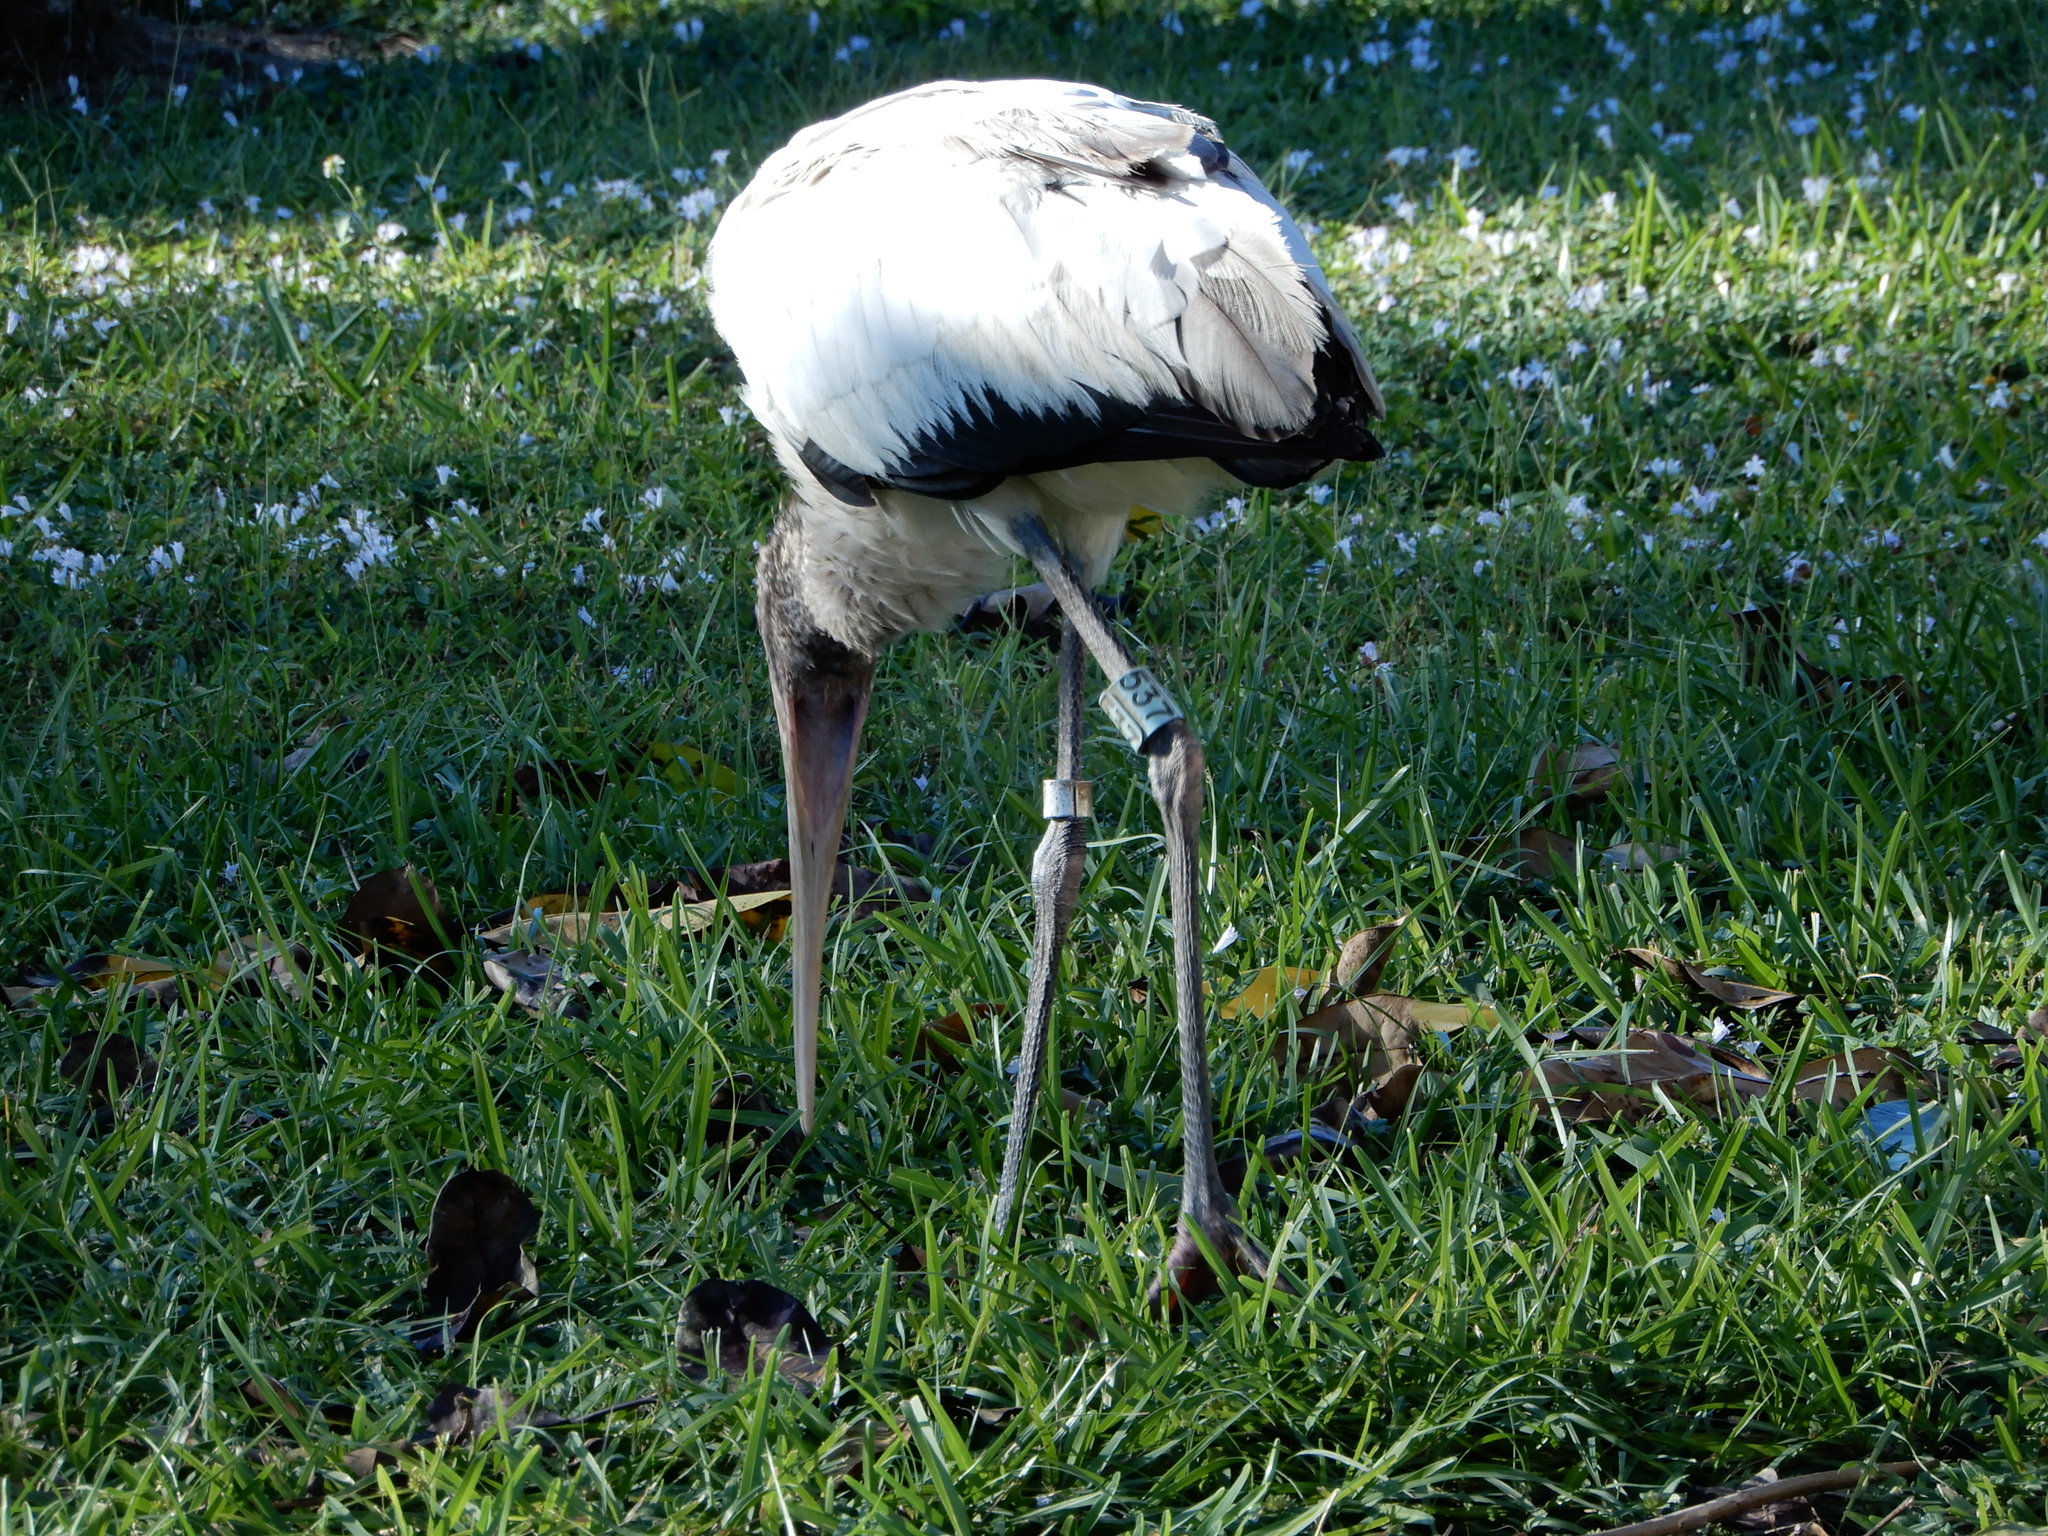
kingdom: Animalia
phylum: Chordata
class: Aves
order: Ciconiiformes
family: Ciconiidae
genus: Mycteria
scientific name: Mycteria americana
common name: Wood stork
